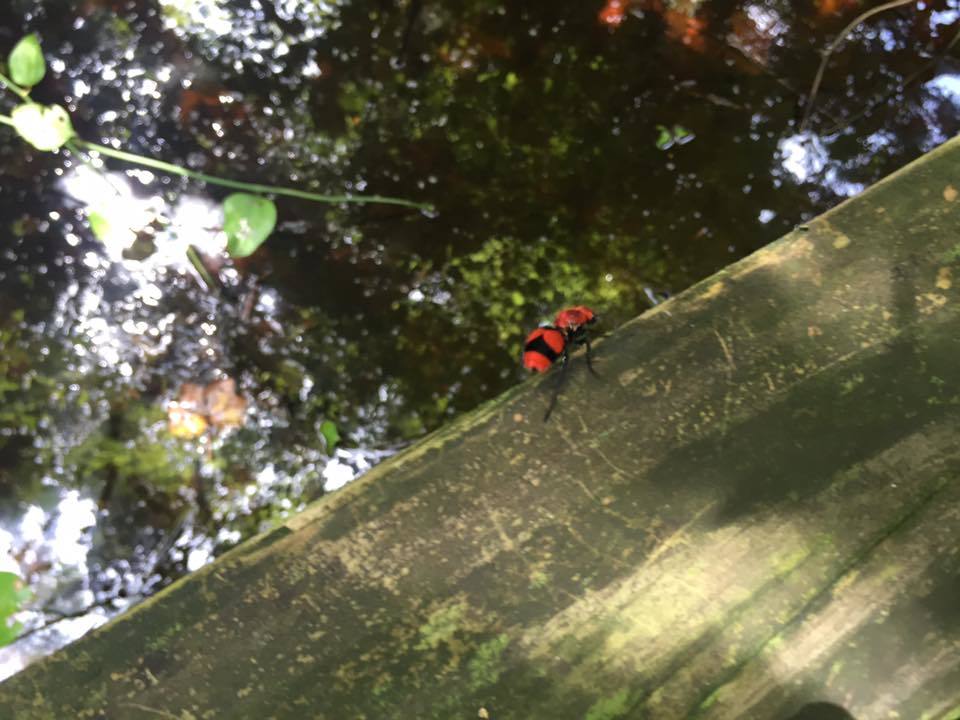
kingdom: Animalia
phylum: Arthropoda
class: Insecta
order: Hymenoptera
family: Mutillidae
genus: Dasymutilla
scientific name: Dasymutilla occidentalis
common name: Common eastern velvet ant
